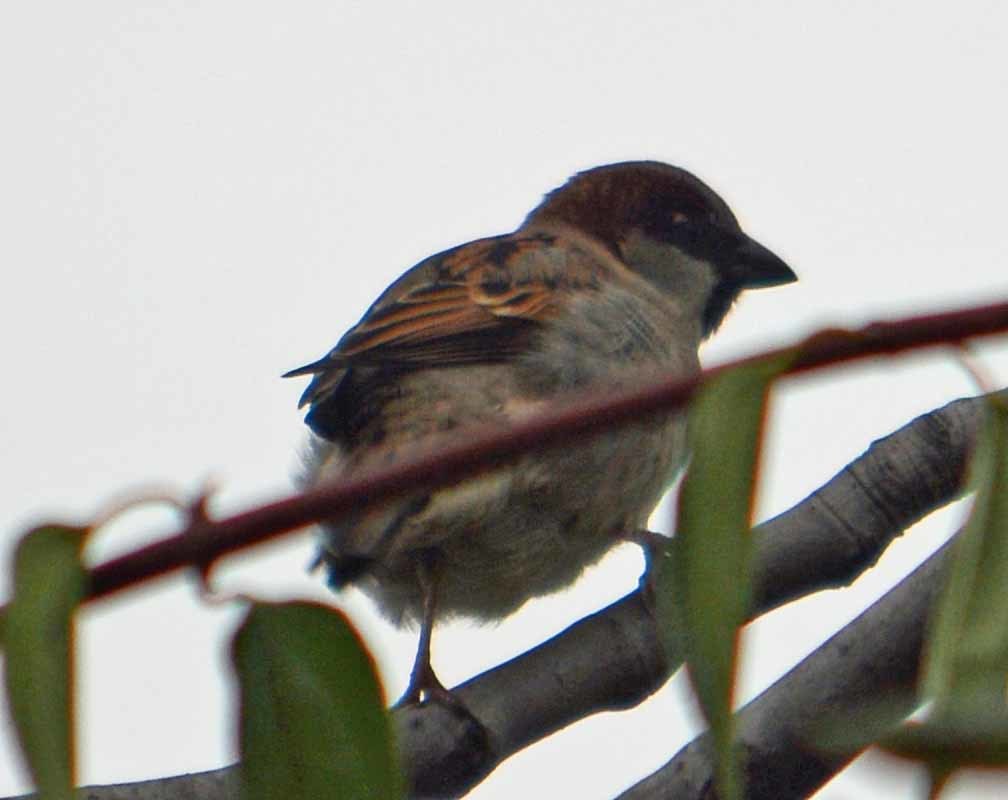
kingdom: Animalia
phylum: Chordata
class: Aves
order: Passeriformes
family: Passeridae
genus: Passer
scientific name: Passer domesticus
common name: House sparrow
